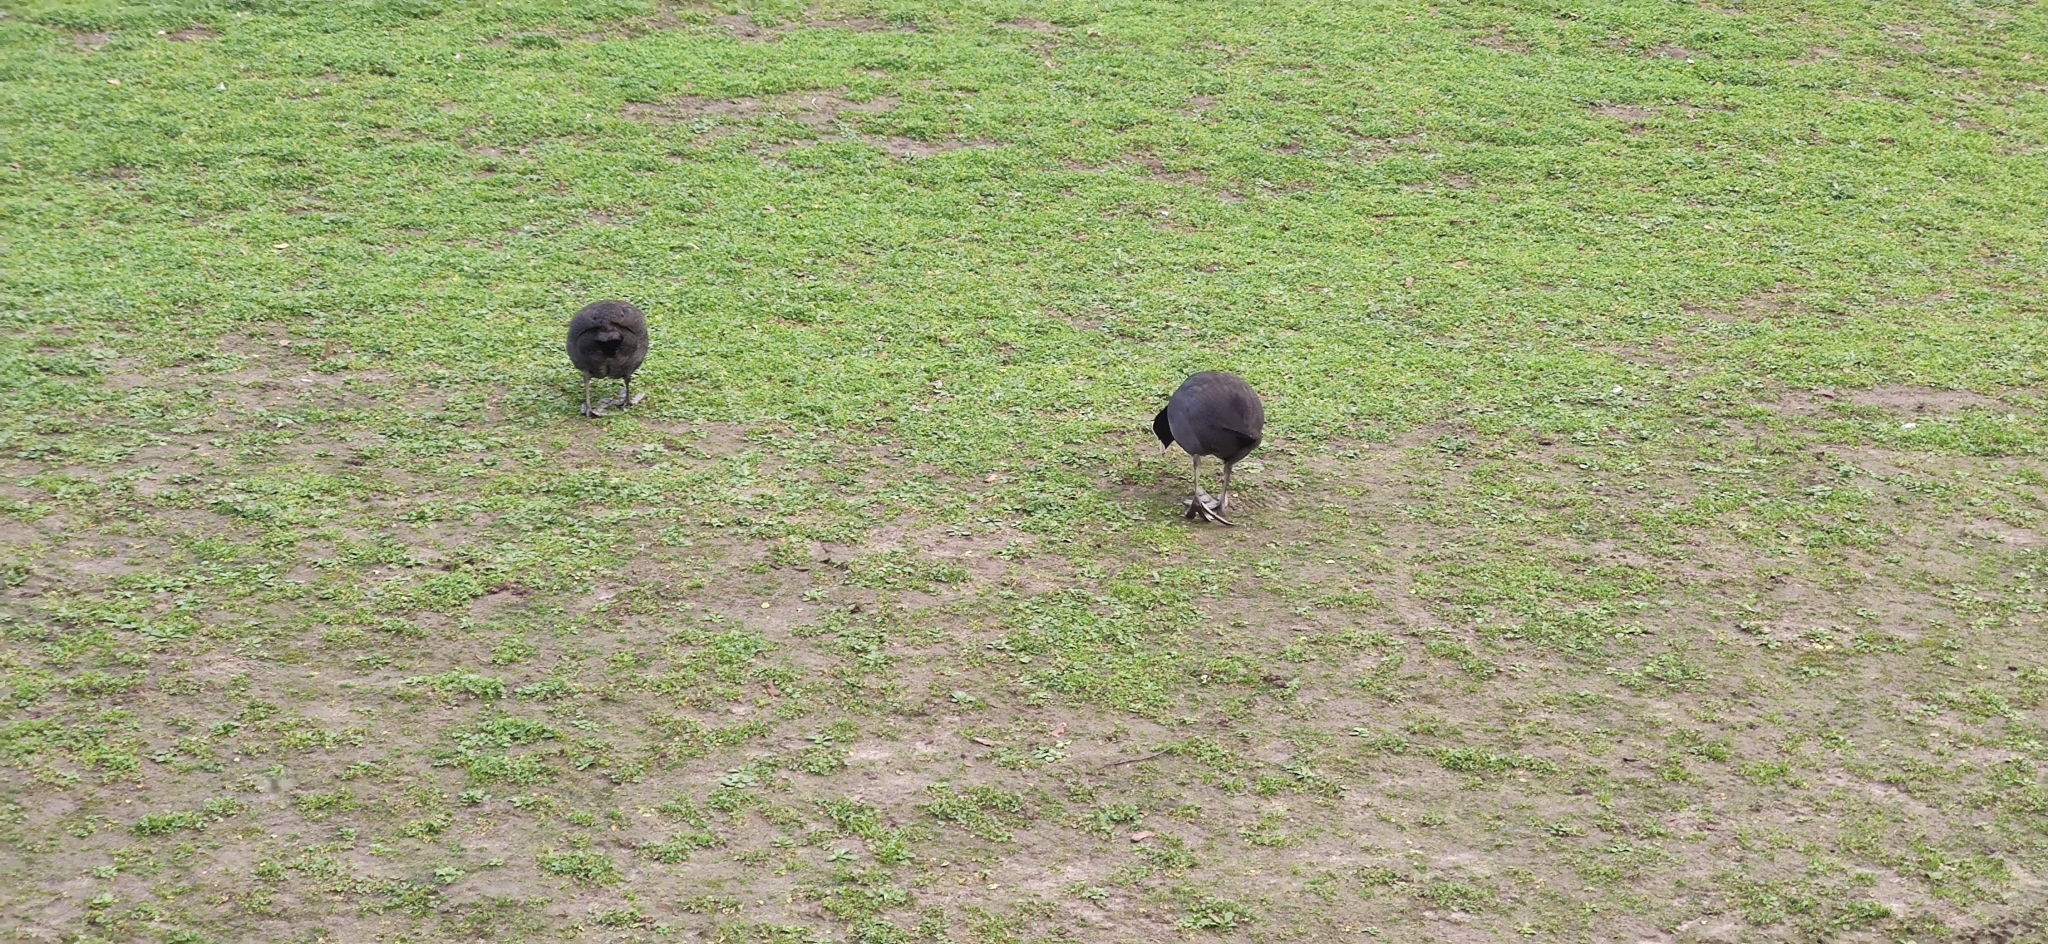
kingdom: Animalia
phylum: Chordata
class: Aves
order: Gruiformes
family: Rallidae
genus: Fulica
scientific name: Fulica atra
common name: Eurasian coot
